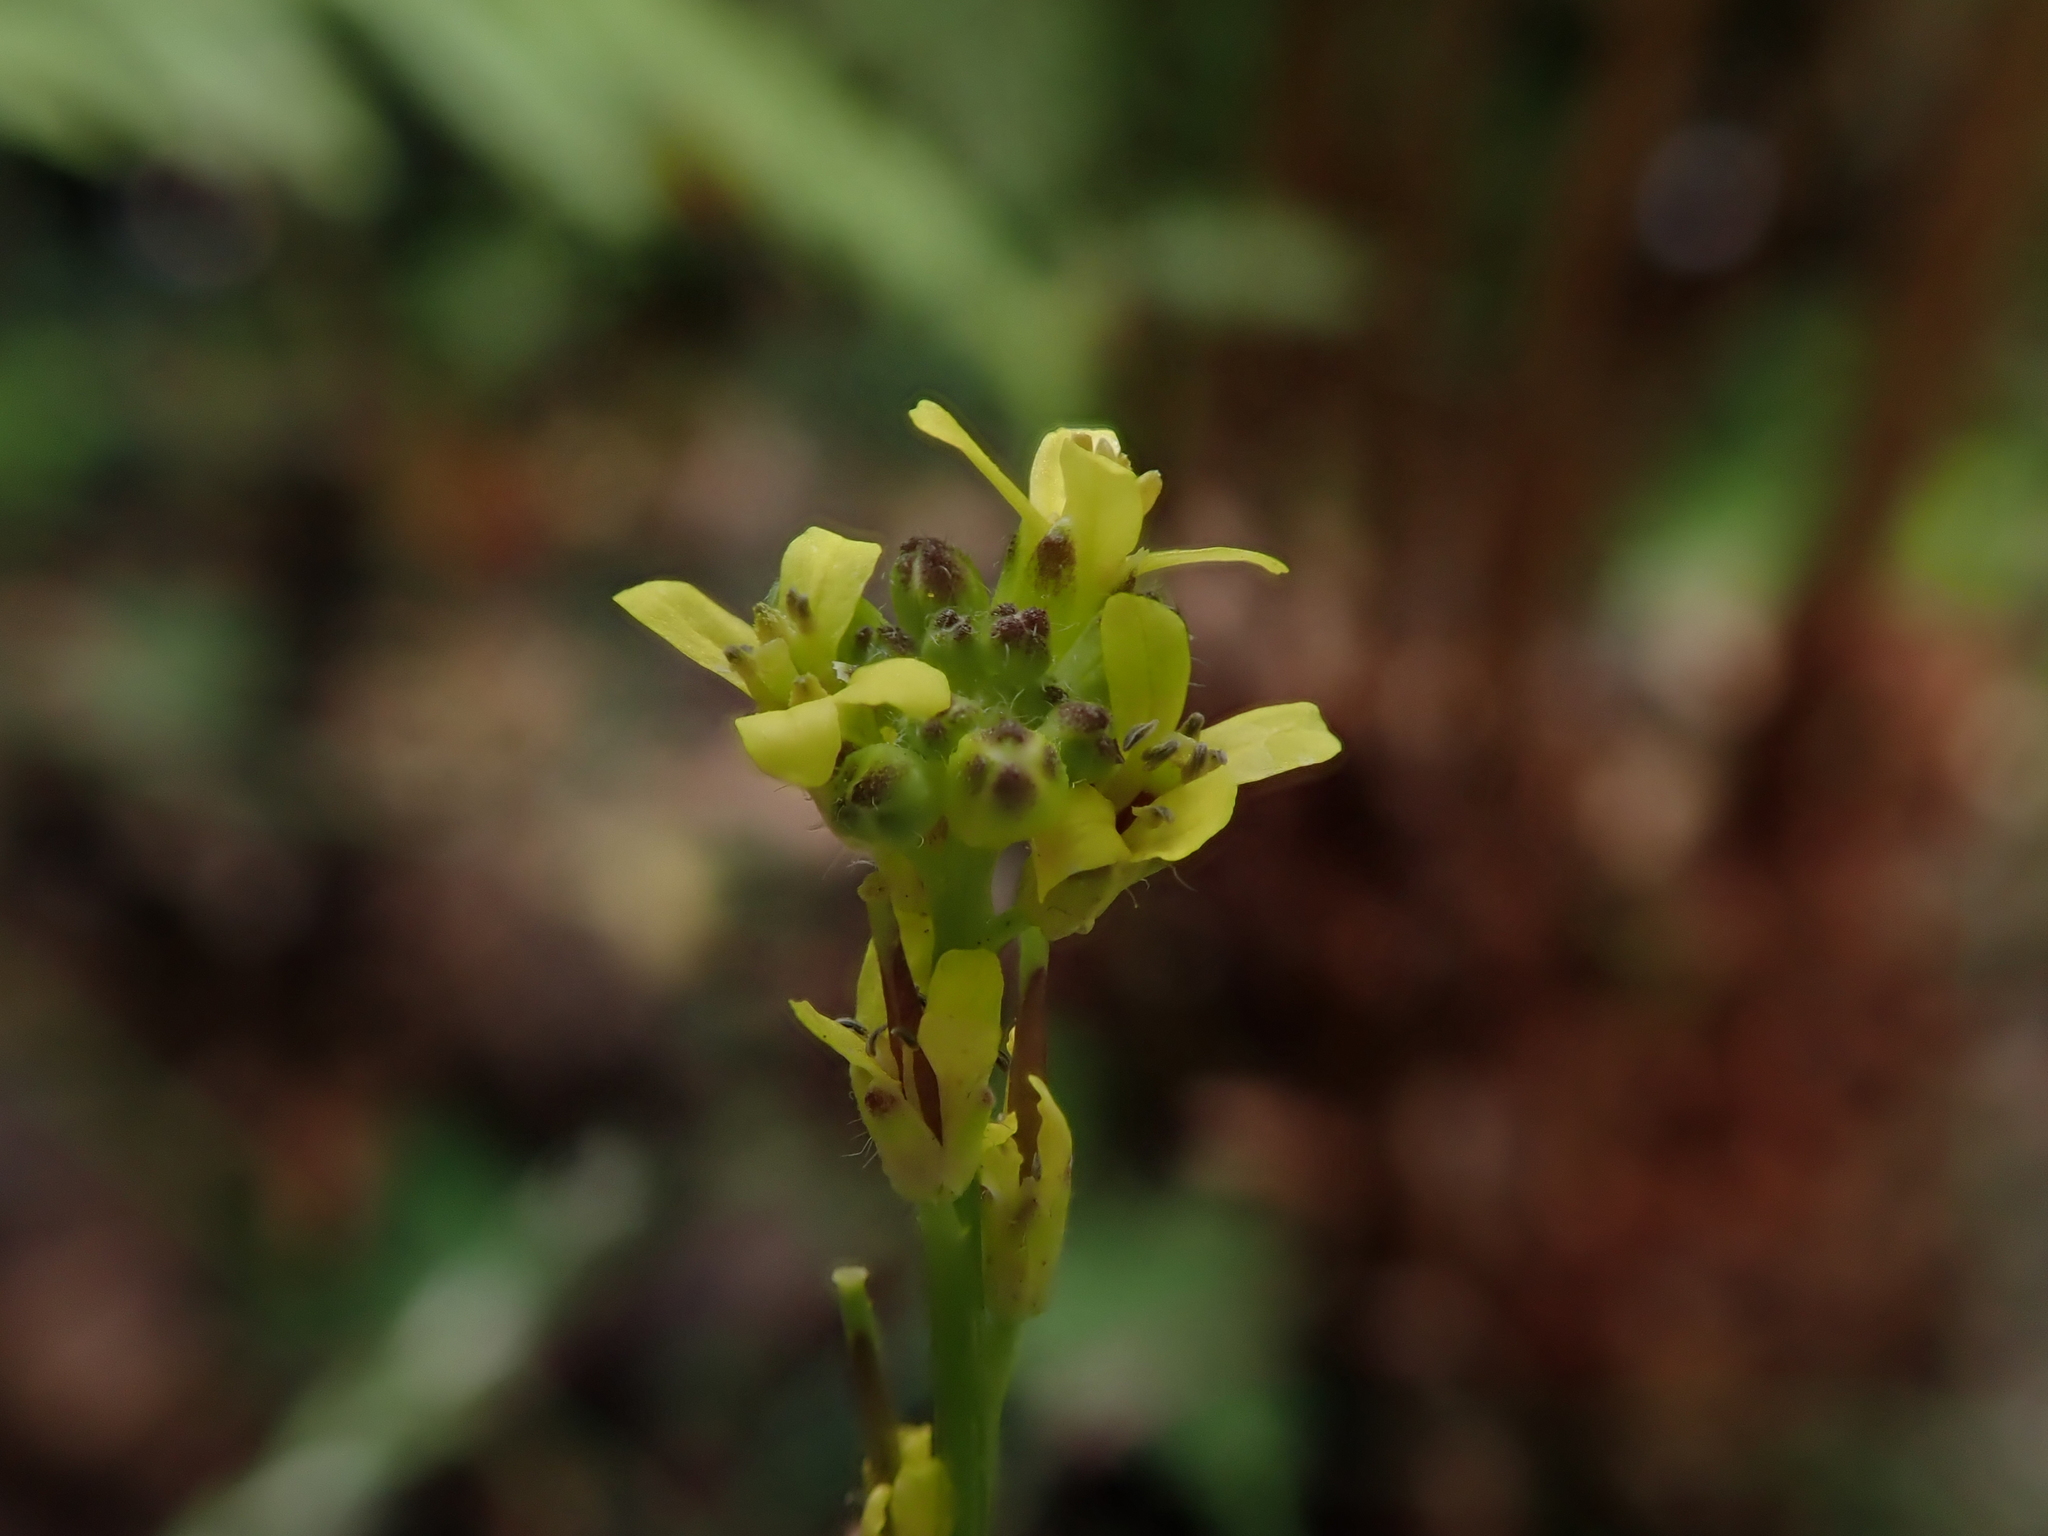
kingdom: Plantae
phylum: Tracheophyta
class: Magnoliopsida
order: Brassicales
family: Brassicaceae
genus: Sisymbrium
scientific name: Sisymbrium officinale
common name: Hedge mustard
